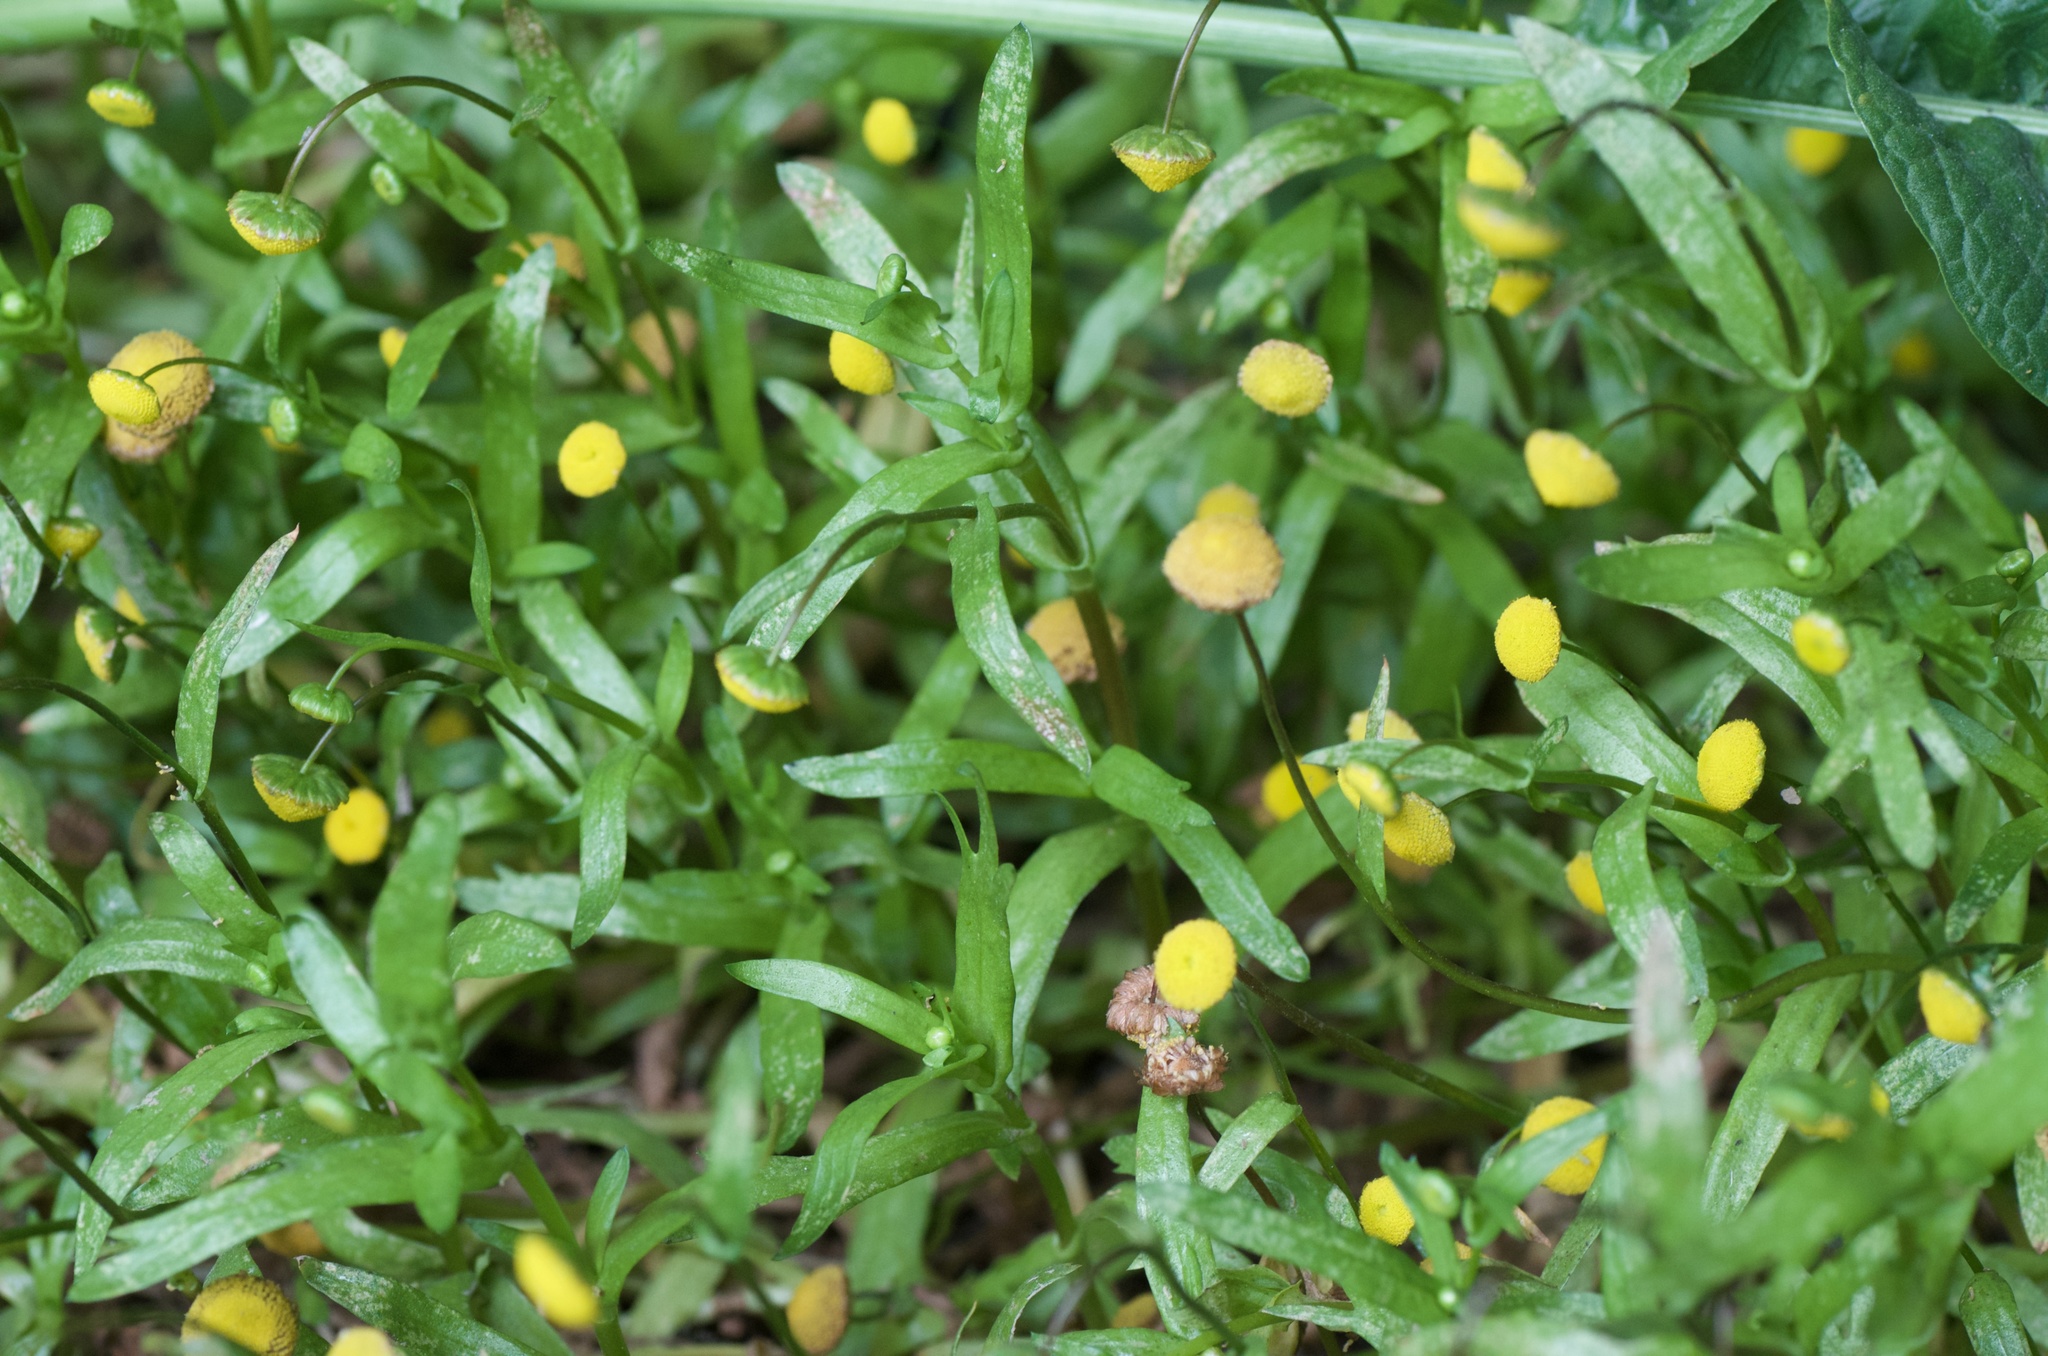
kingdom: Plantae
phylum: Tracheophyta
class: Magnoliopsida
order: Asterales
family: Asteraceae
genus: Cotula
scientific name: Cotula coronopifolia
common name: Buttonweed
